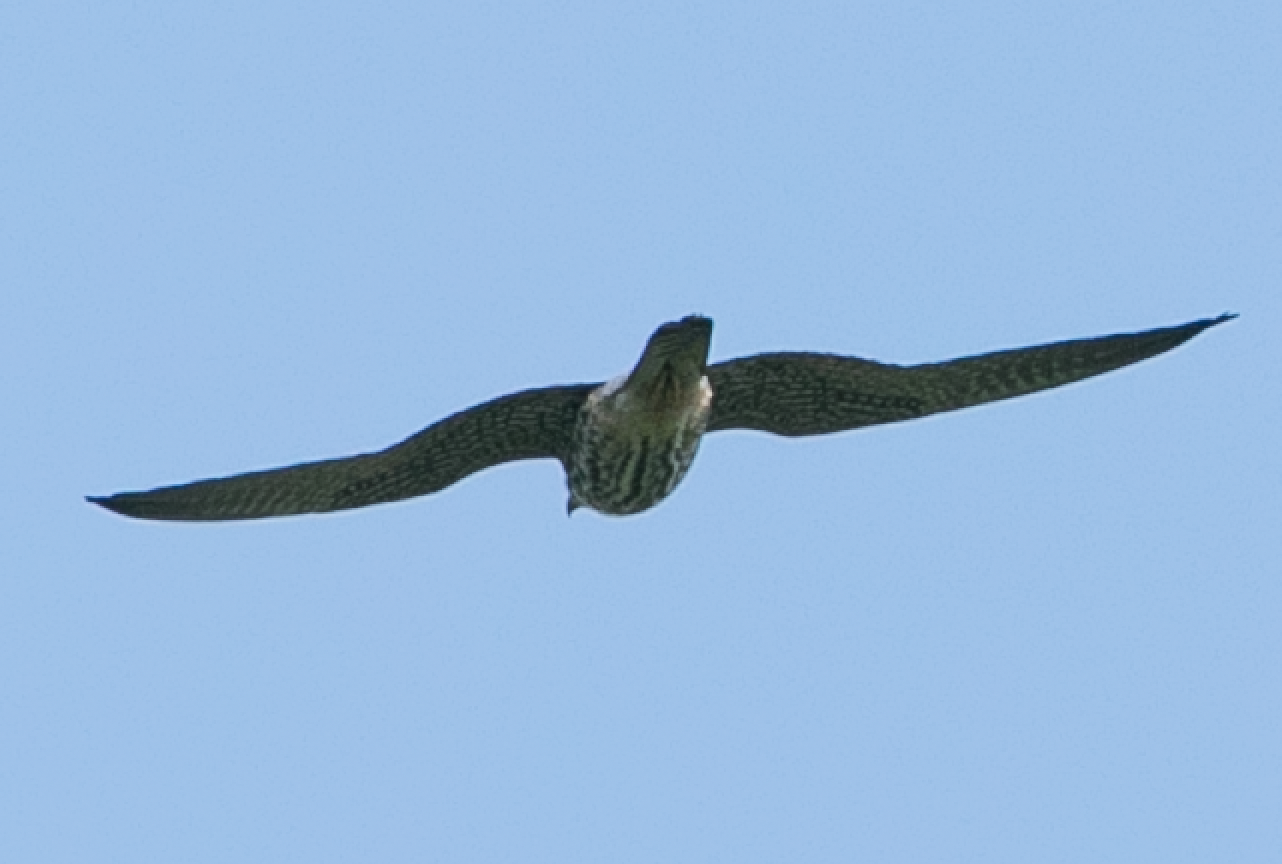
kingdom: Animalia
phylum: Chordata
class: Aves
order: Falconiformes
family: Falconidae
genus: Falco
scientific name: Falco subbuteo
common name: Eurasian hobby
